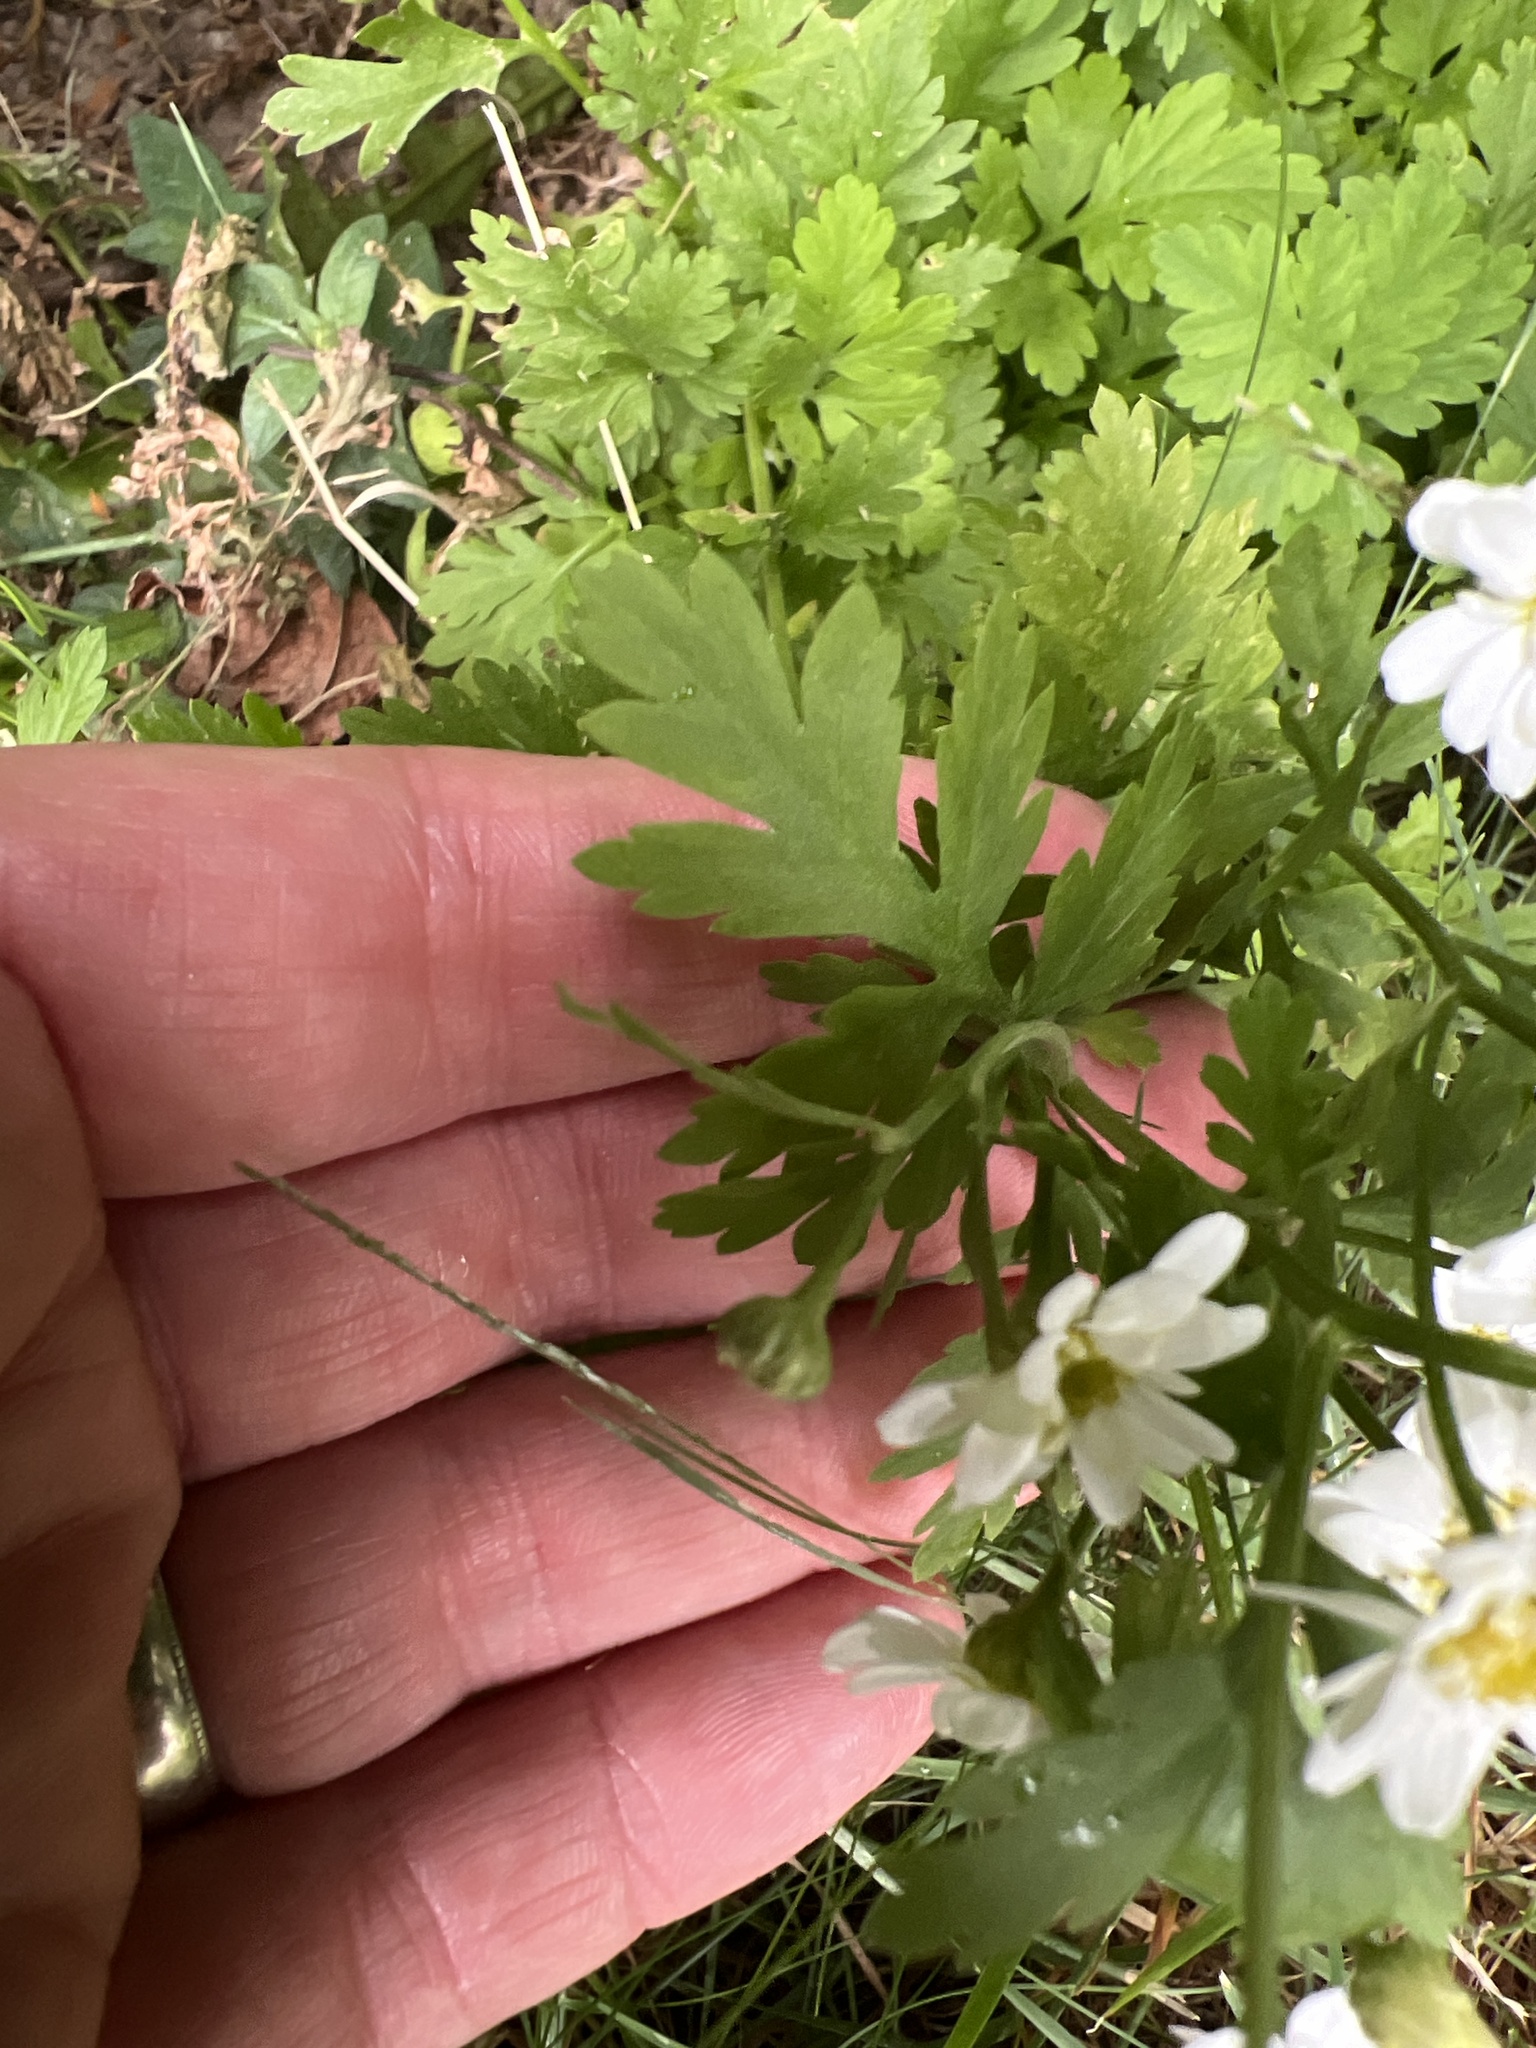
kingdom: Plantae
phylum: Tracheophyta
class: Magnoliopsida
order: Asterales
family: Asteraceae
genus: Tanacetum
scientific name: Tanacetum parthenium
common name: Feverfew
